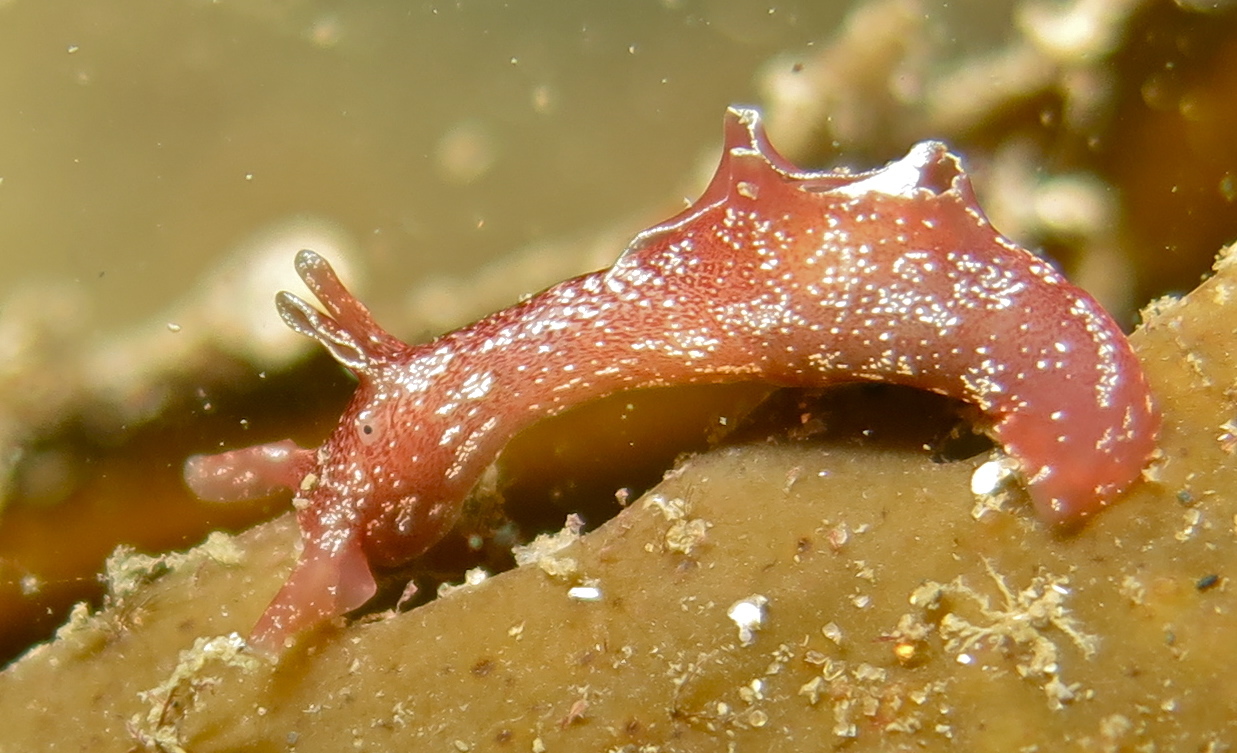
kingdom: Animalia
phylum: Mollusca
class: Gastropoda
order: Aplysiida
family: Aplysiidae
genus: Aplysia
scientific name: Aplysia punctata
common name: Common sea hare
